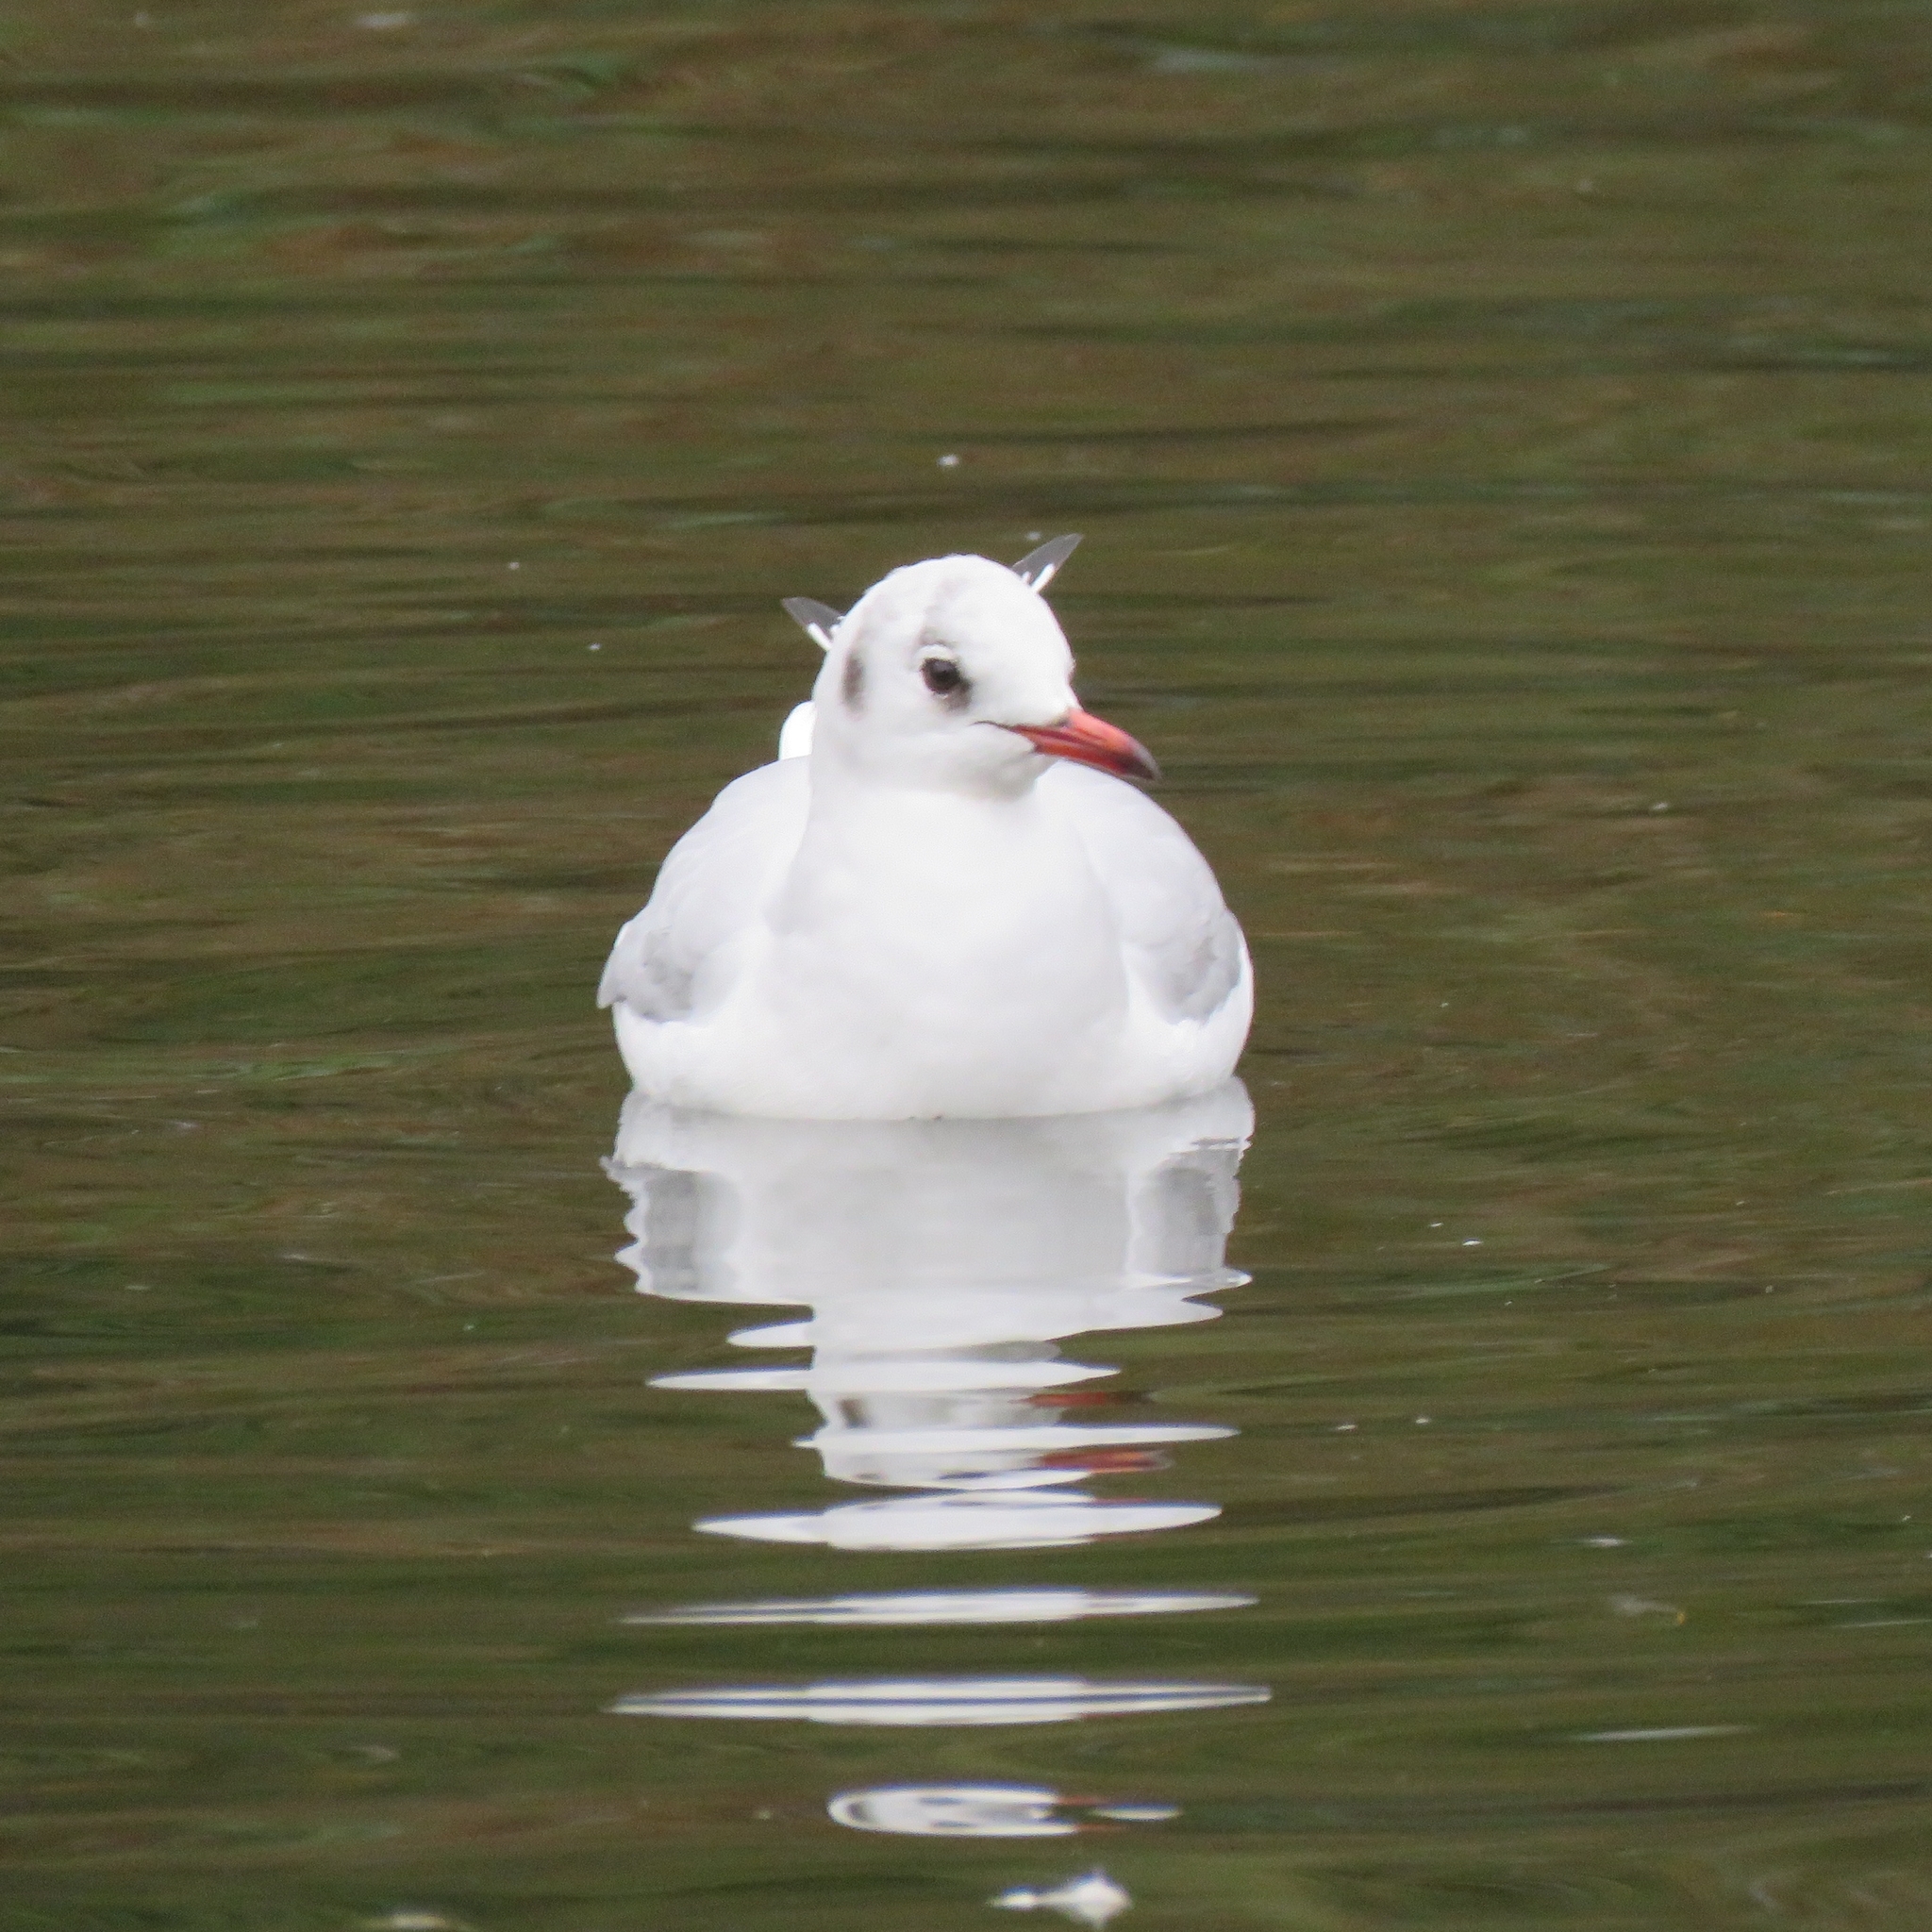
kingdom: Animalia
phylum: Chordata
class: Aves
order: Charadriiformes
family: Laridae
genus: Chroicocephalus
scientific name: Chroicocephalus ridibundus
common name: Black-headed gull
